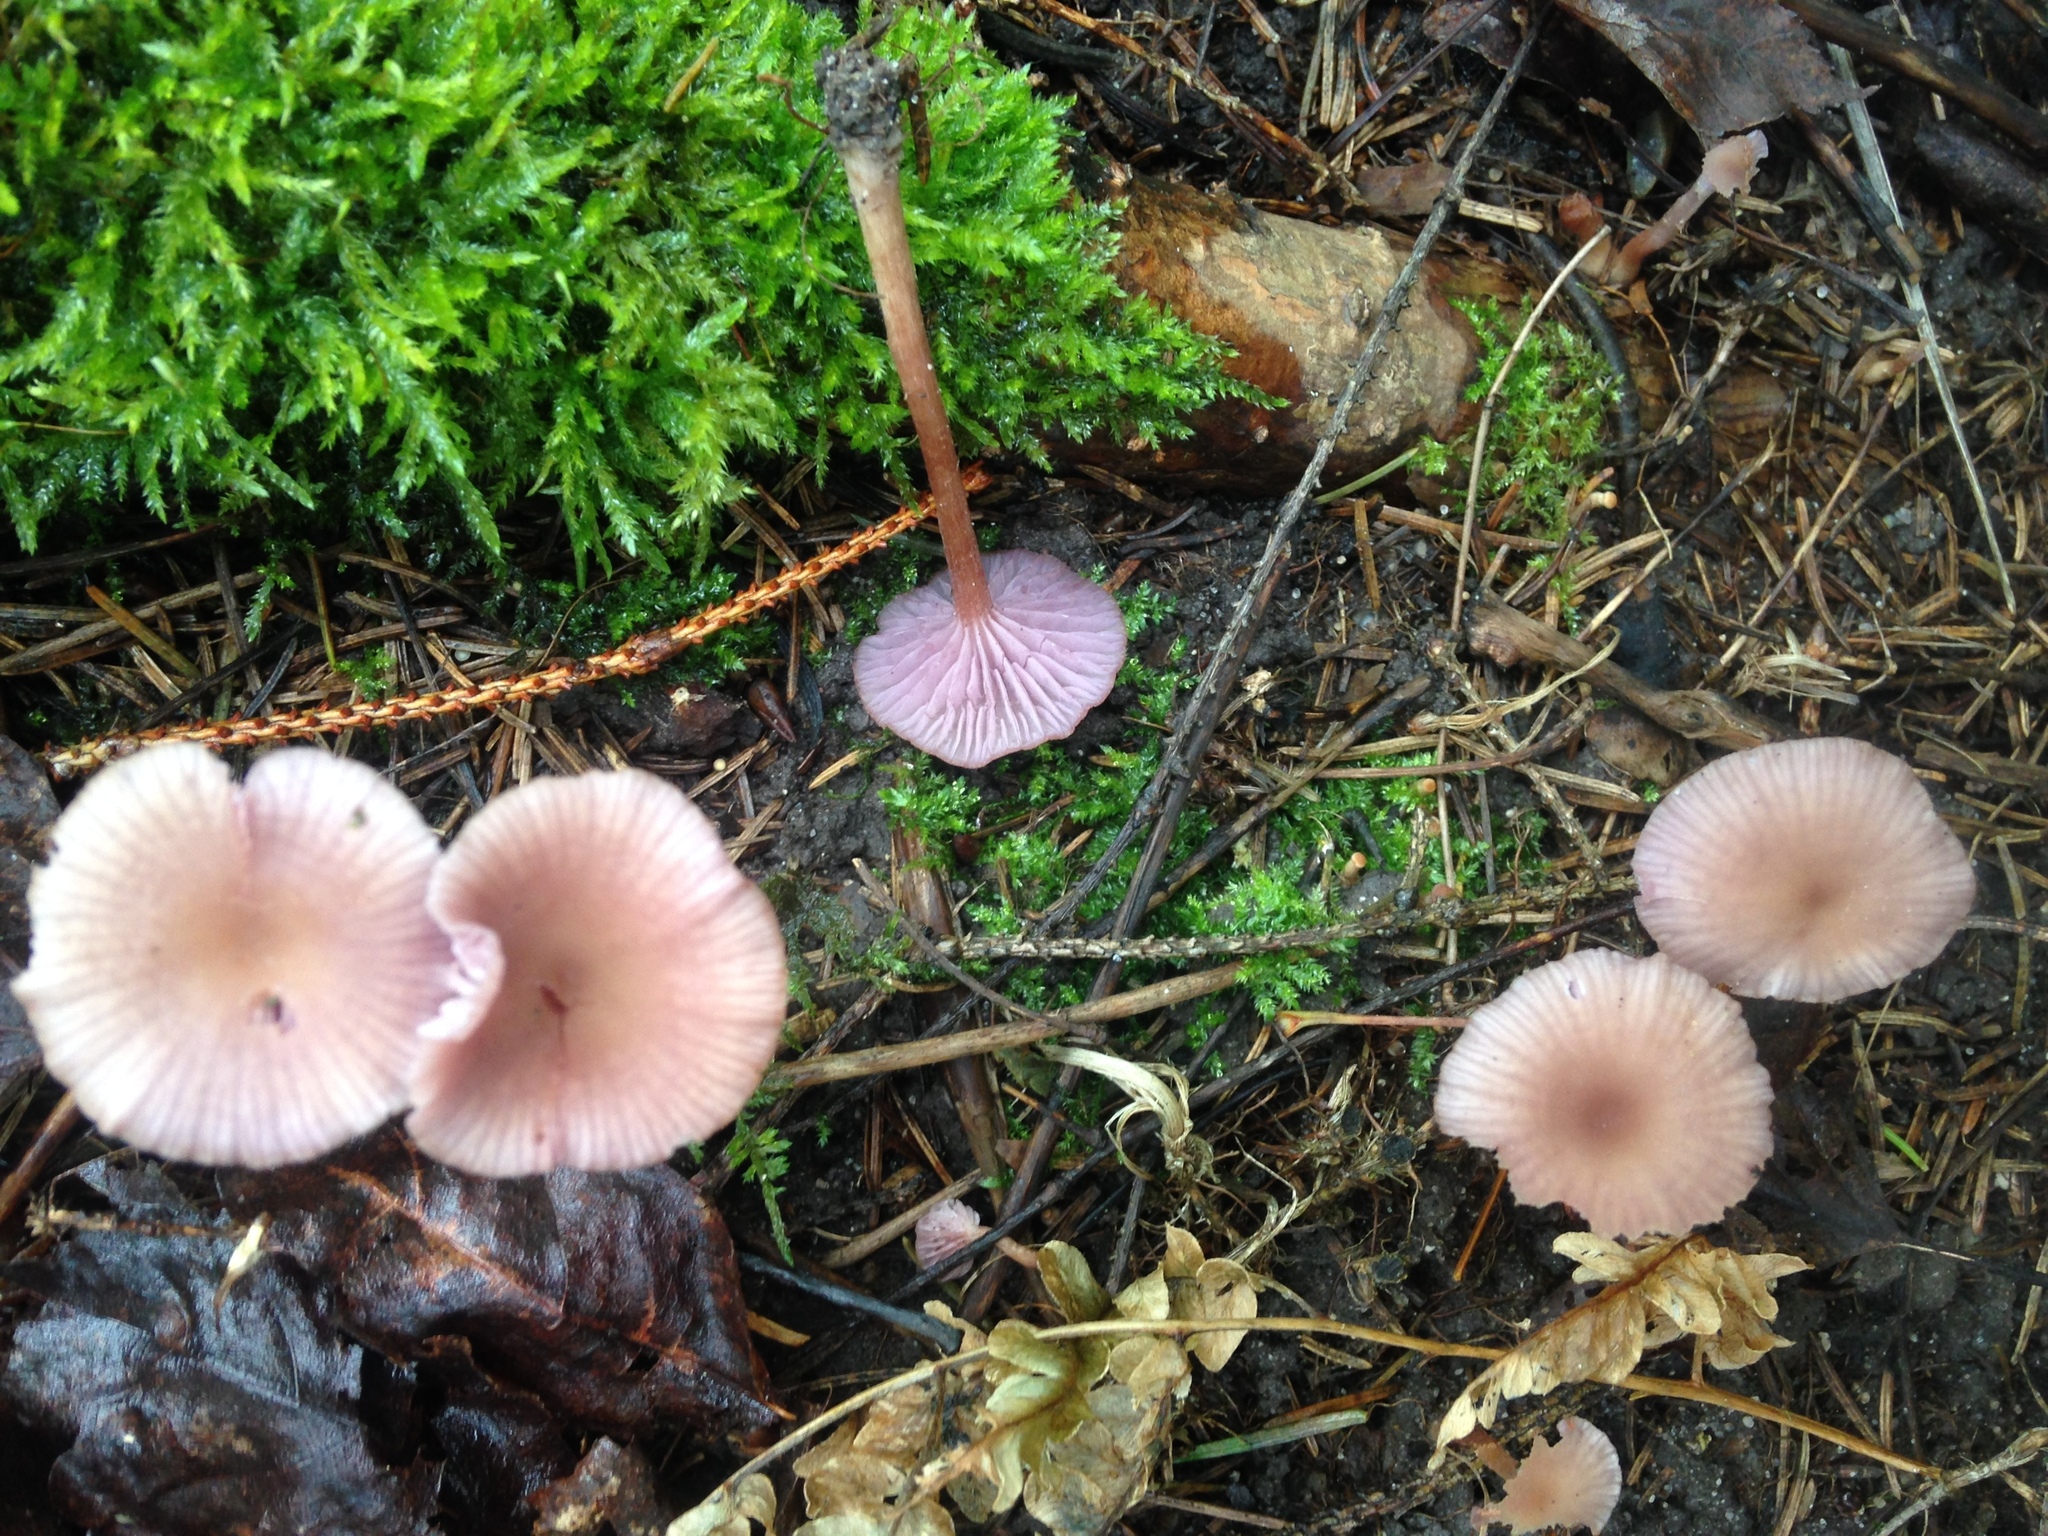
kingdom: Fungi
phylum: Basidiomycota
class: Agaricomycetes
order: Agaricales
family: Hydnangiaceae
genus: Laccaria
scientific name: Laccaria amethystina
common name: Amethyst deceiver
